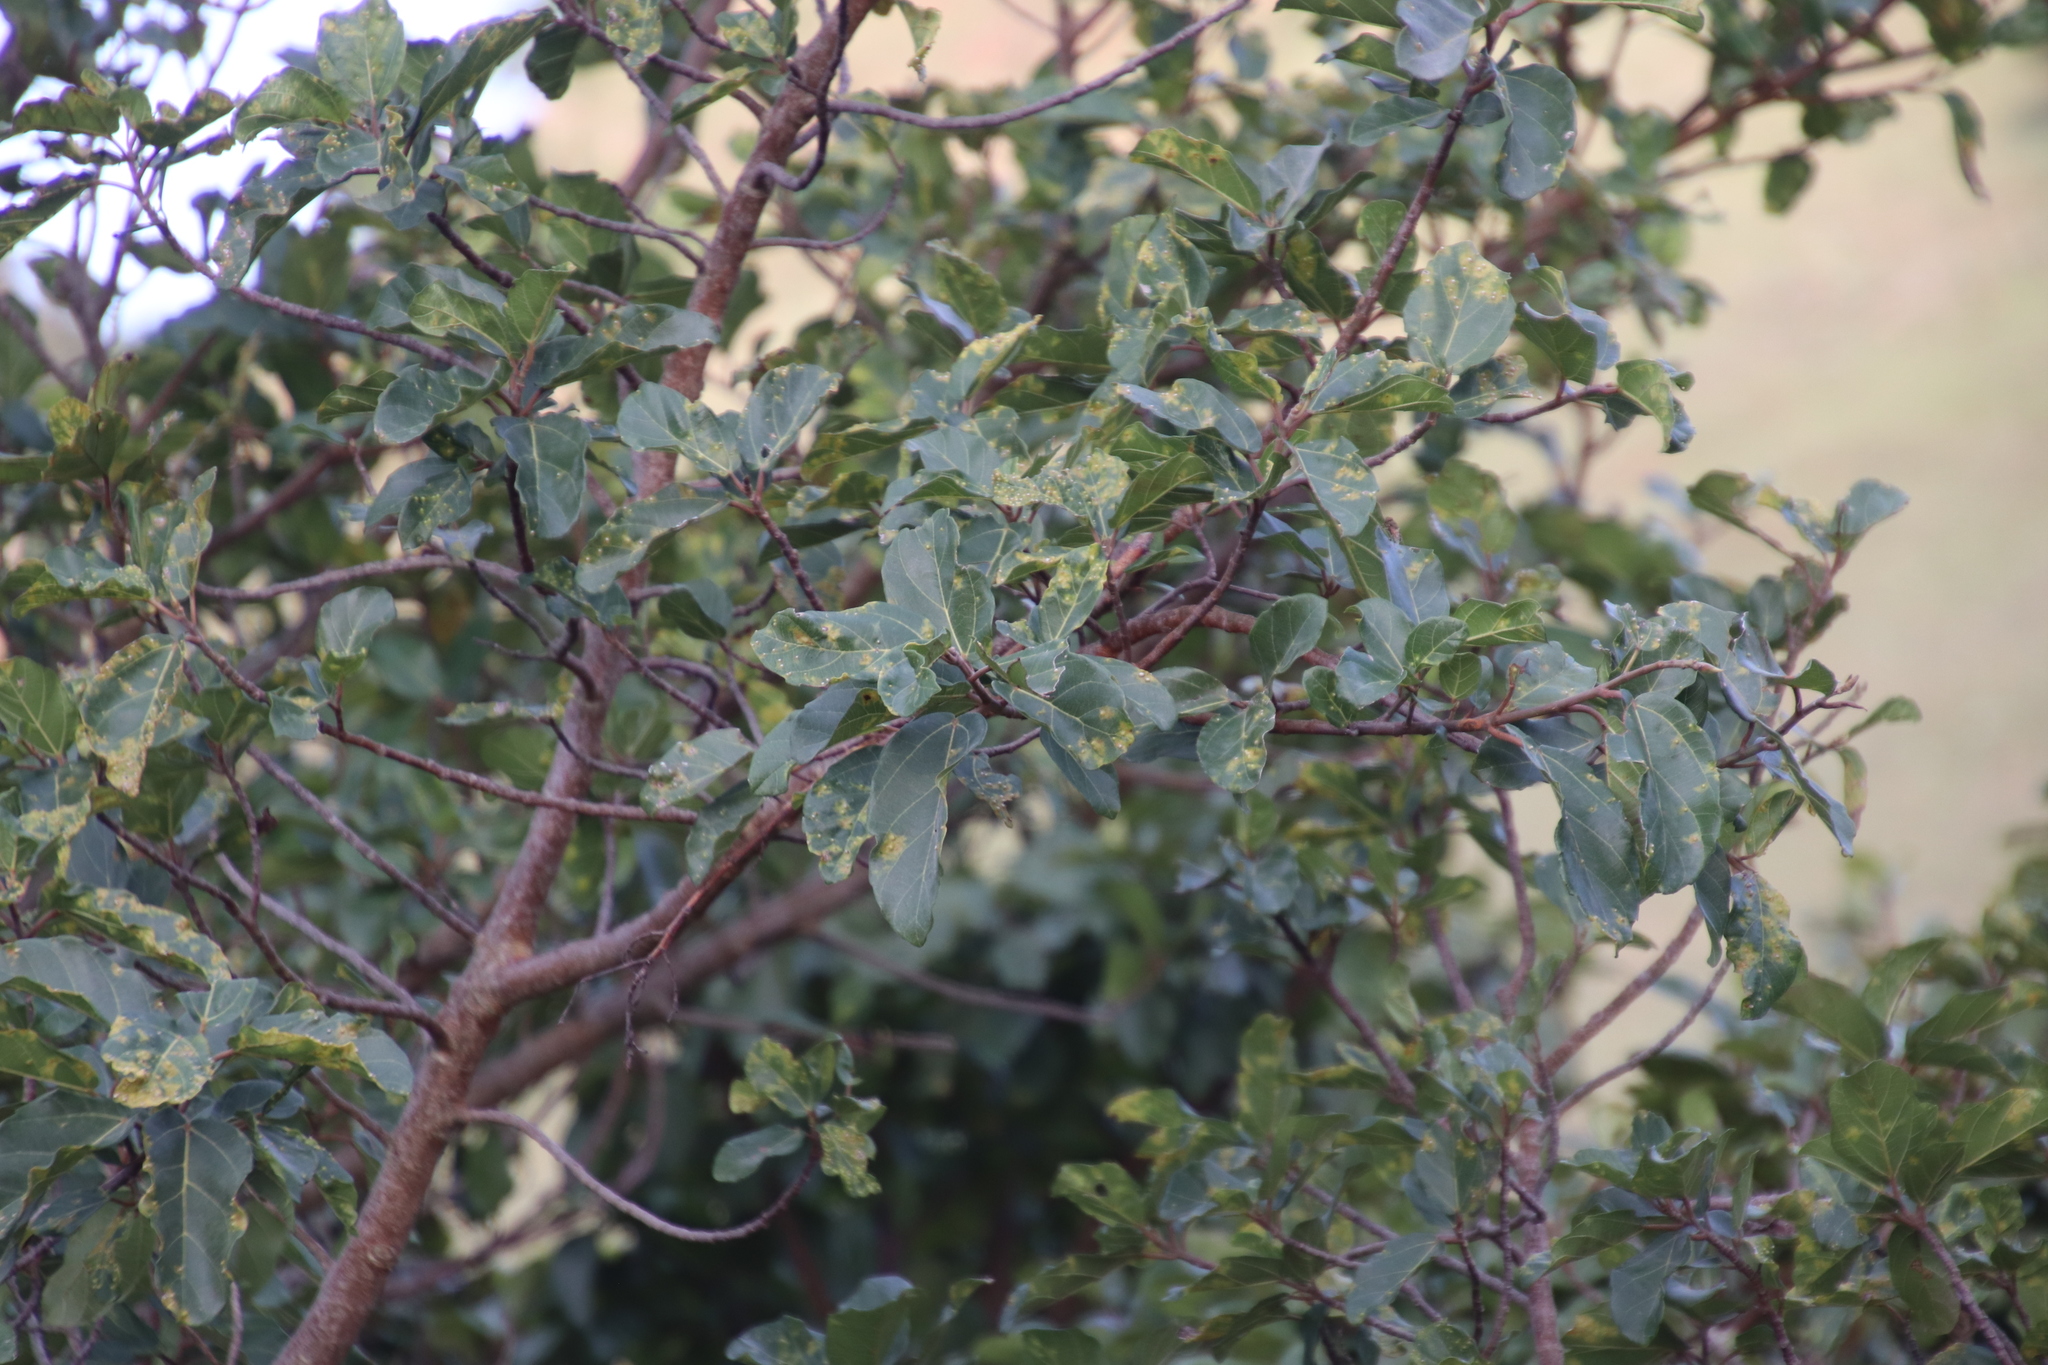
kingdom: Plantae
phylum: Tracheophyta
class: Magnoliopsida
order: Rosales
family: Moraceae
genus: Ficus
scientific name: Ficus sur
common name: Cape fig
